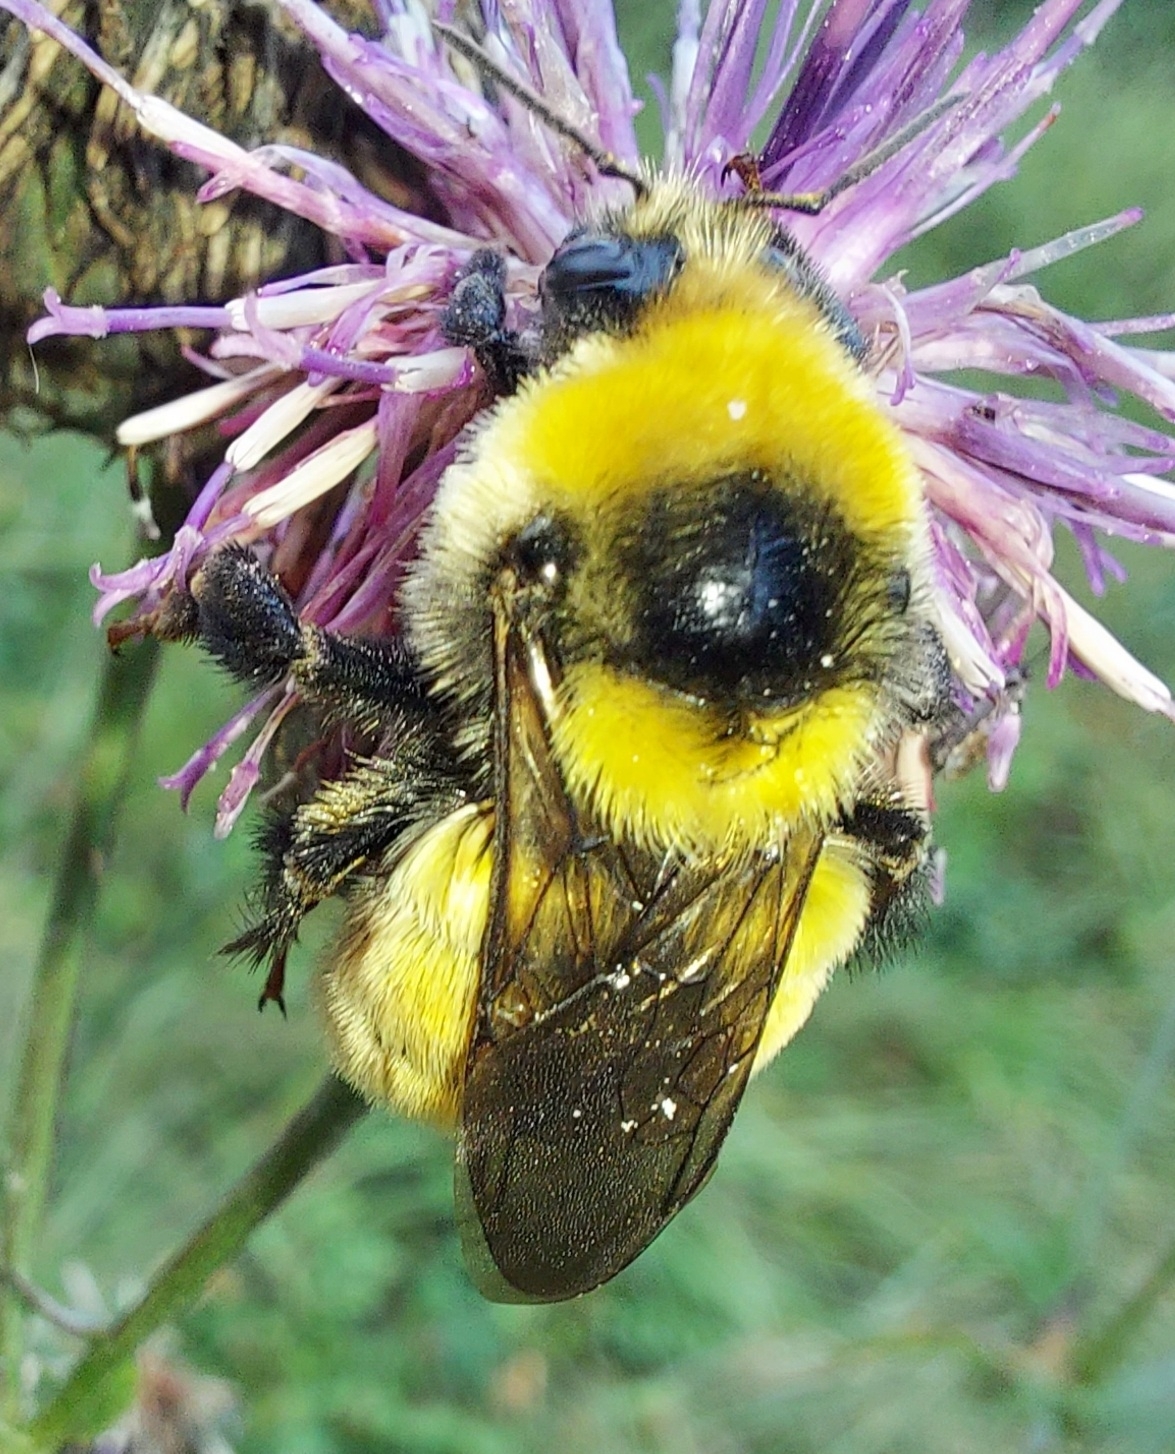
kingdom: Animalia
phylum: Arthropoda
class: Insecta
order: Hymenoptera
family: Apidae
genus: Bombus
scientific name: Bombus distinguendus
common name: Great yellow humble-bee
